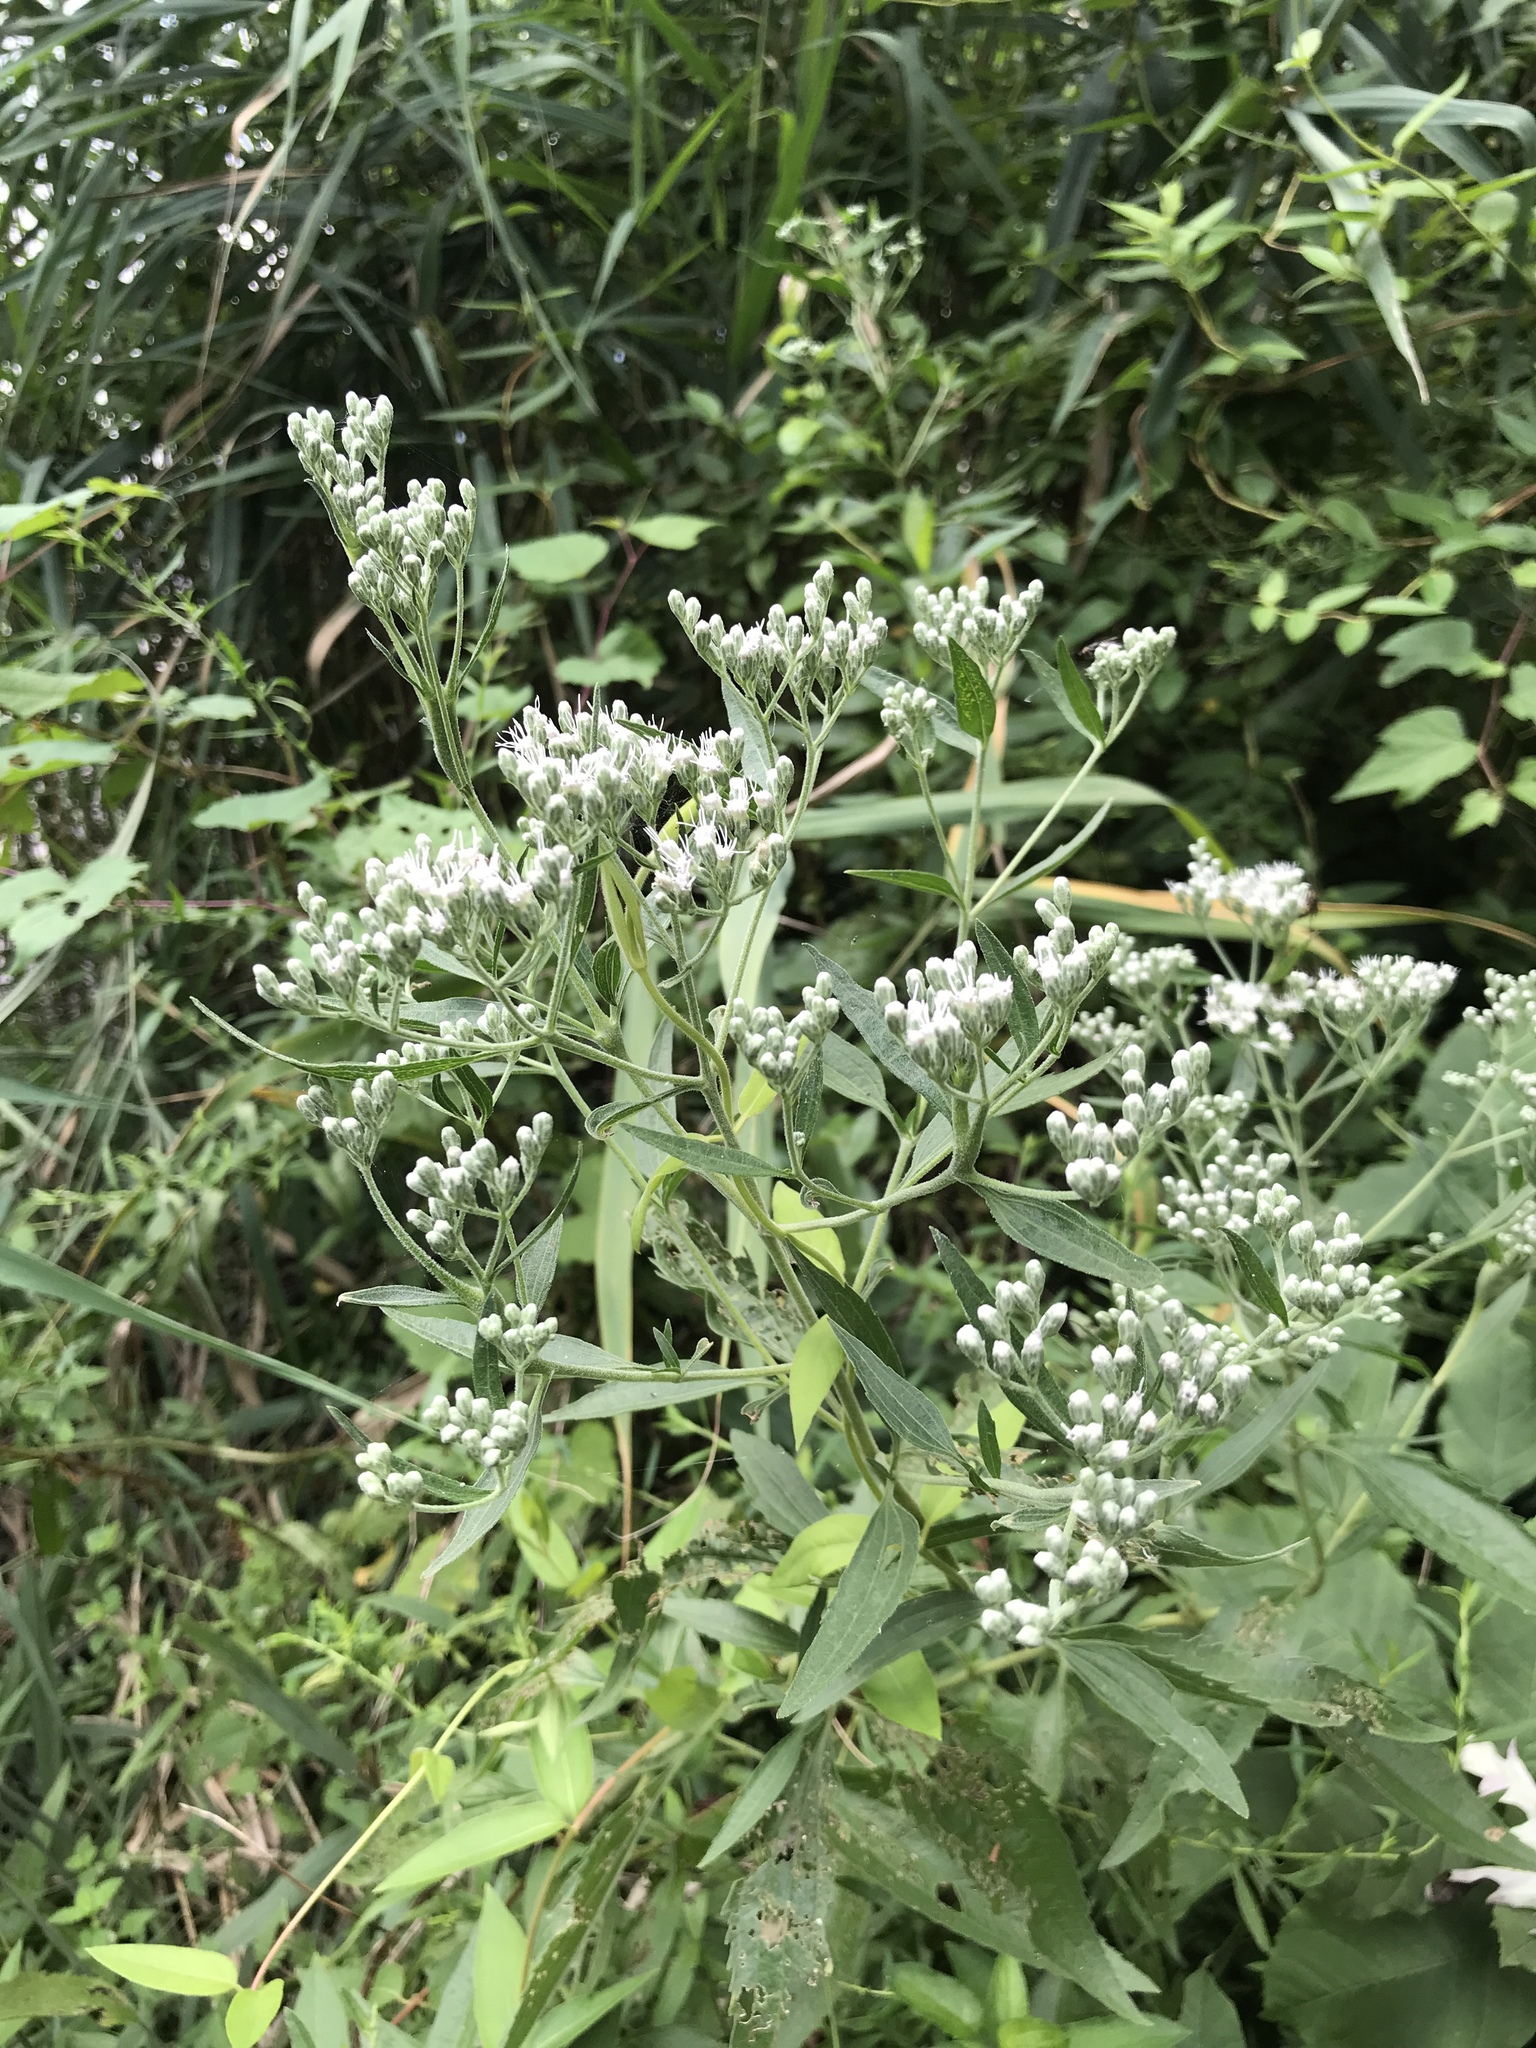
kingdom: Plantae
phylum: Tracheophyta
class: Magnoliopsida
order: Asterales
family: Asteraceae
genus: Eupatorium
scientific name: Eupatorium serotinum
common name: Late boneset
